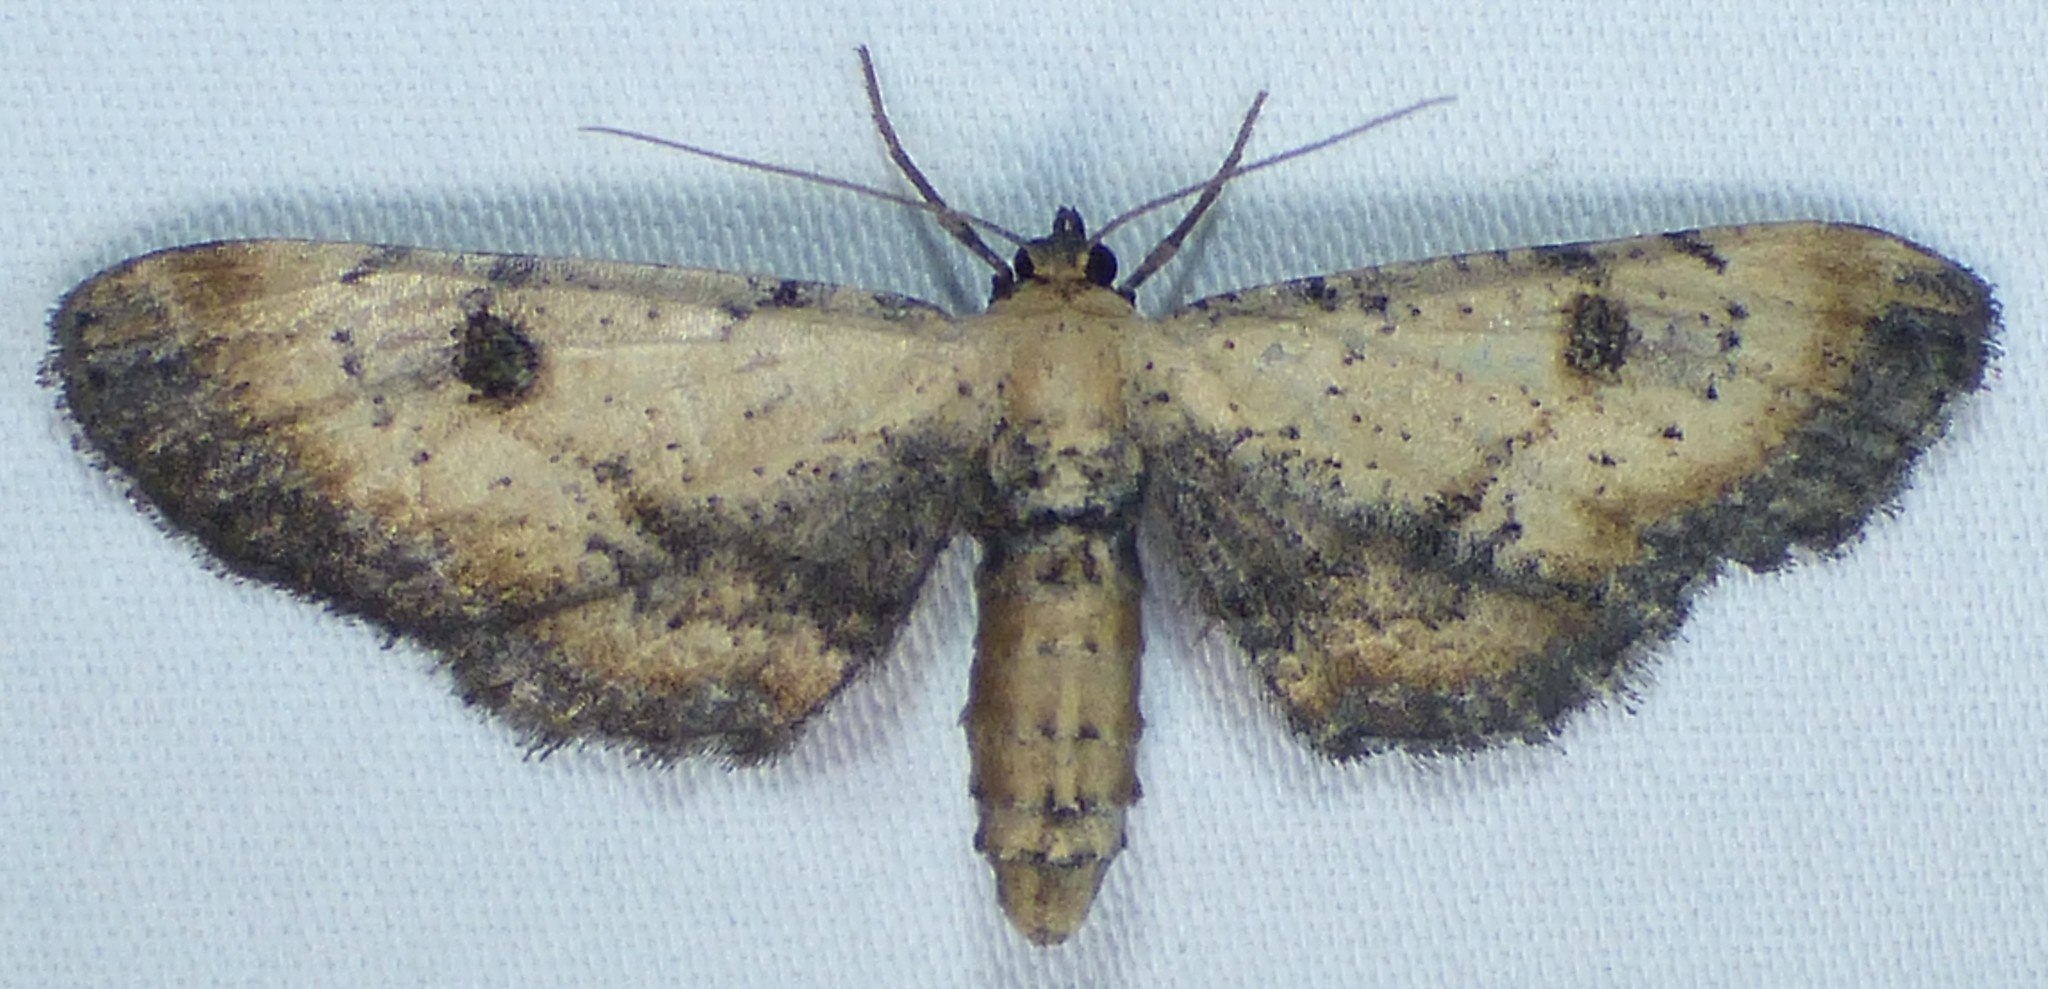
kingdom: Animalia
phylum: Arthropoda
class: Insecta
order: Lepidoptera
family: Geometridae
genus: Tornos
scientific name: Tornos scolopacinaria
